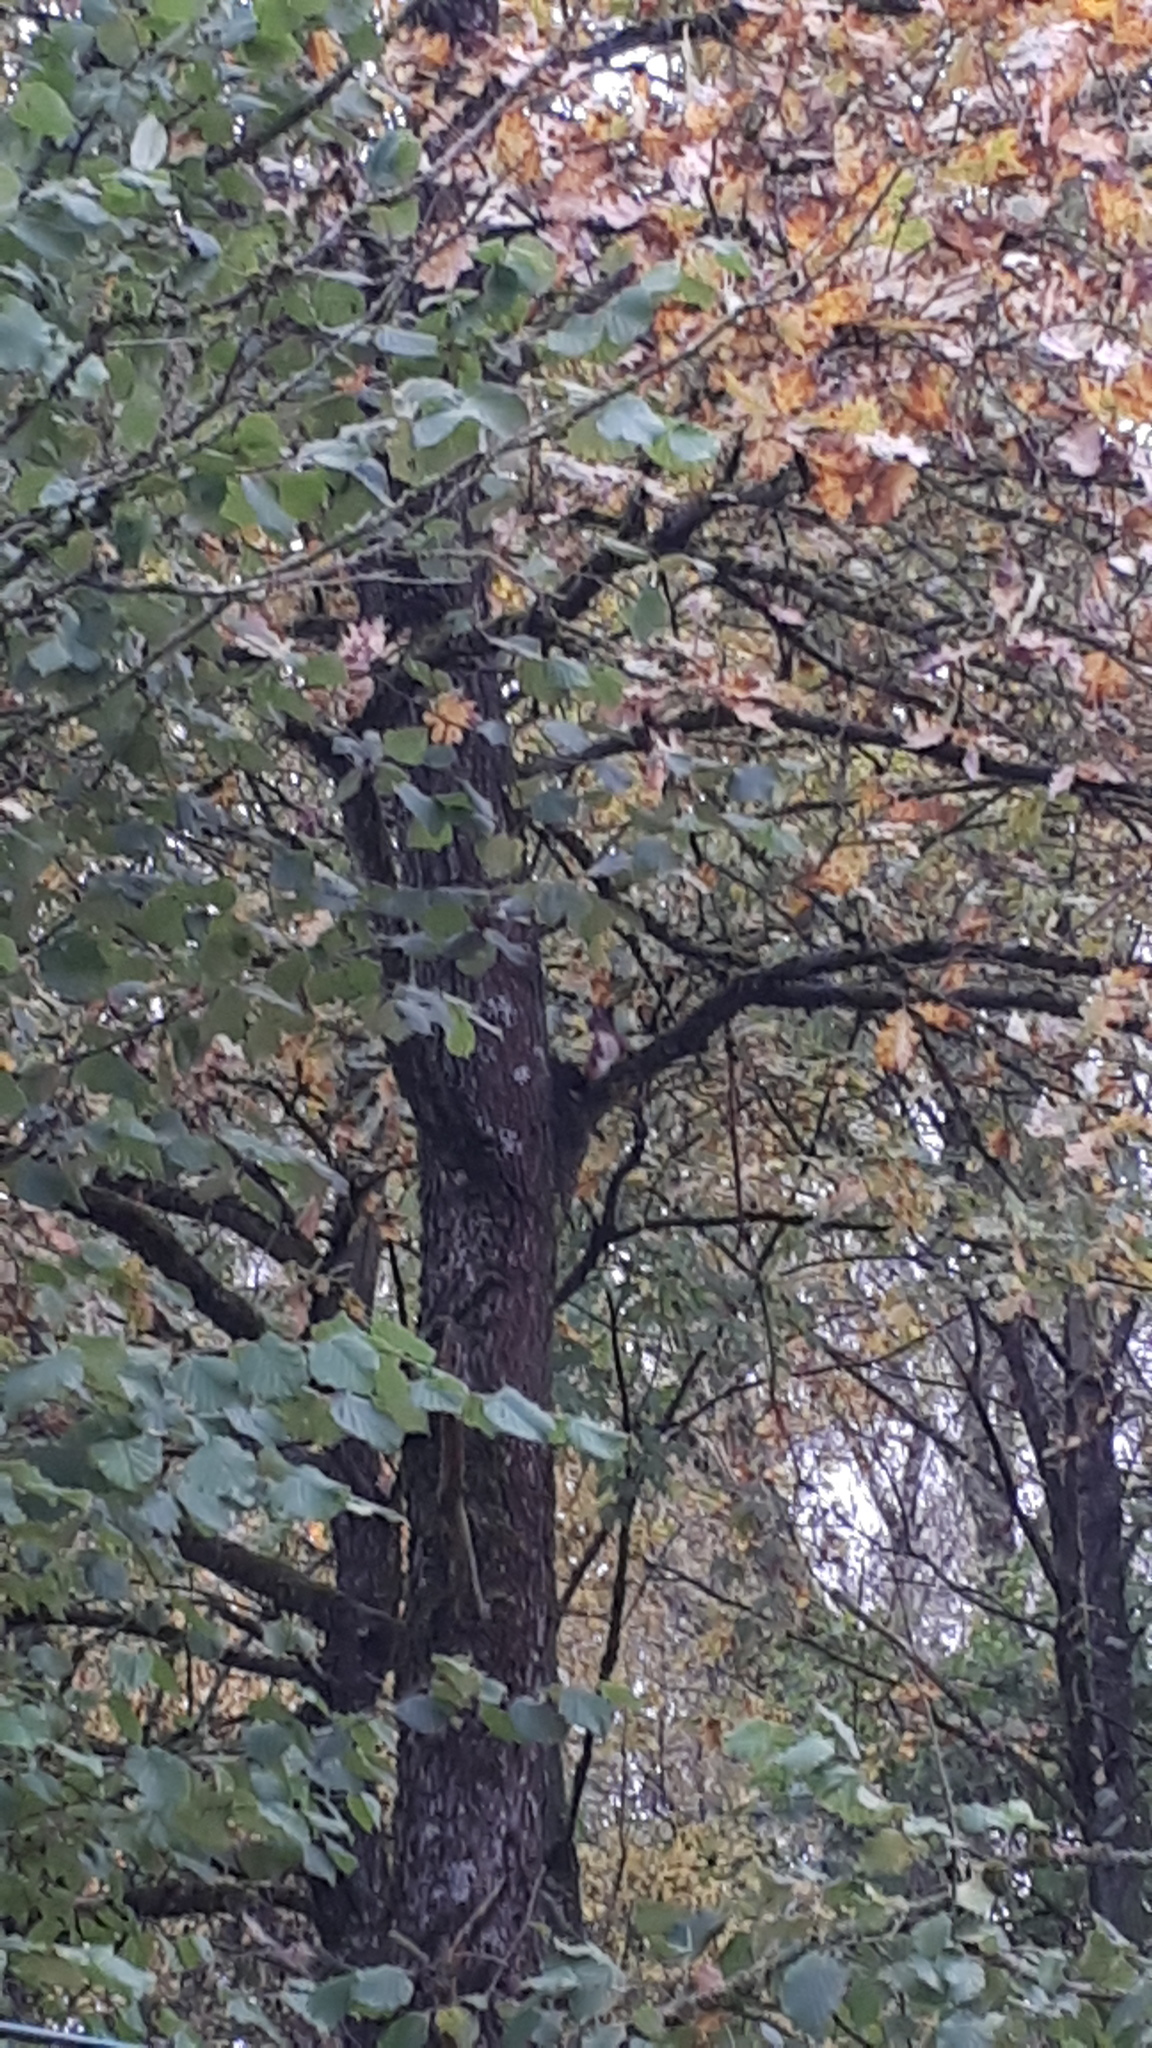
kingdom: Animalia
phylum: Chordata
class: Mammalia
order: Rodentia
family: Sciuridae
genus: Sciurus
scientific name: Sciurus vulgaris
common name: Eurasian red squirrel
